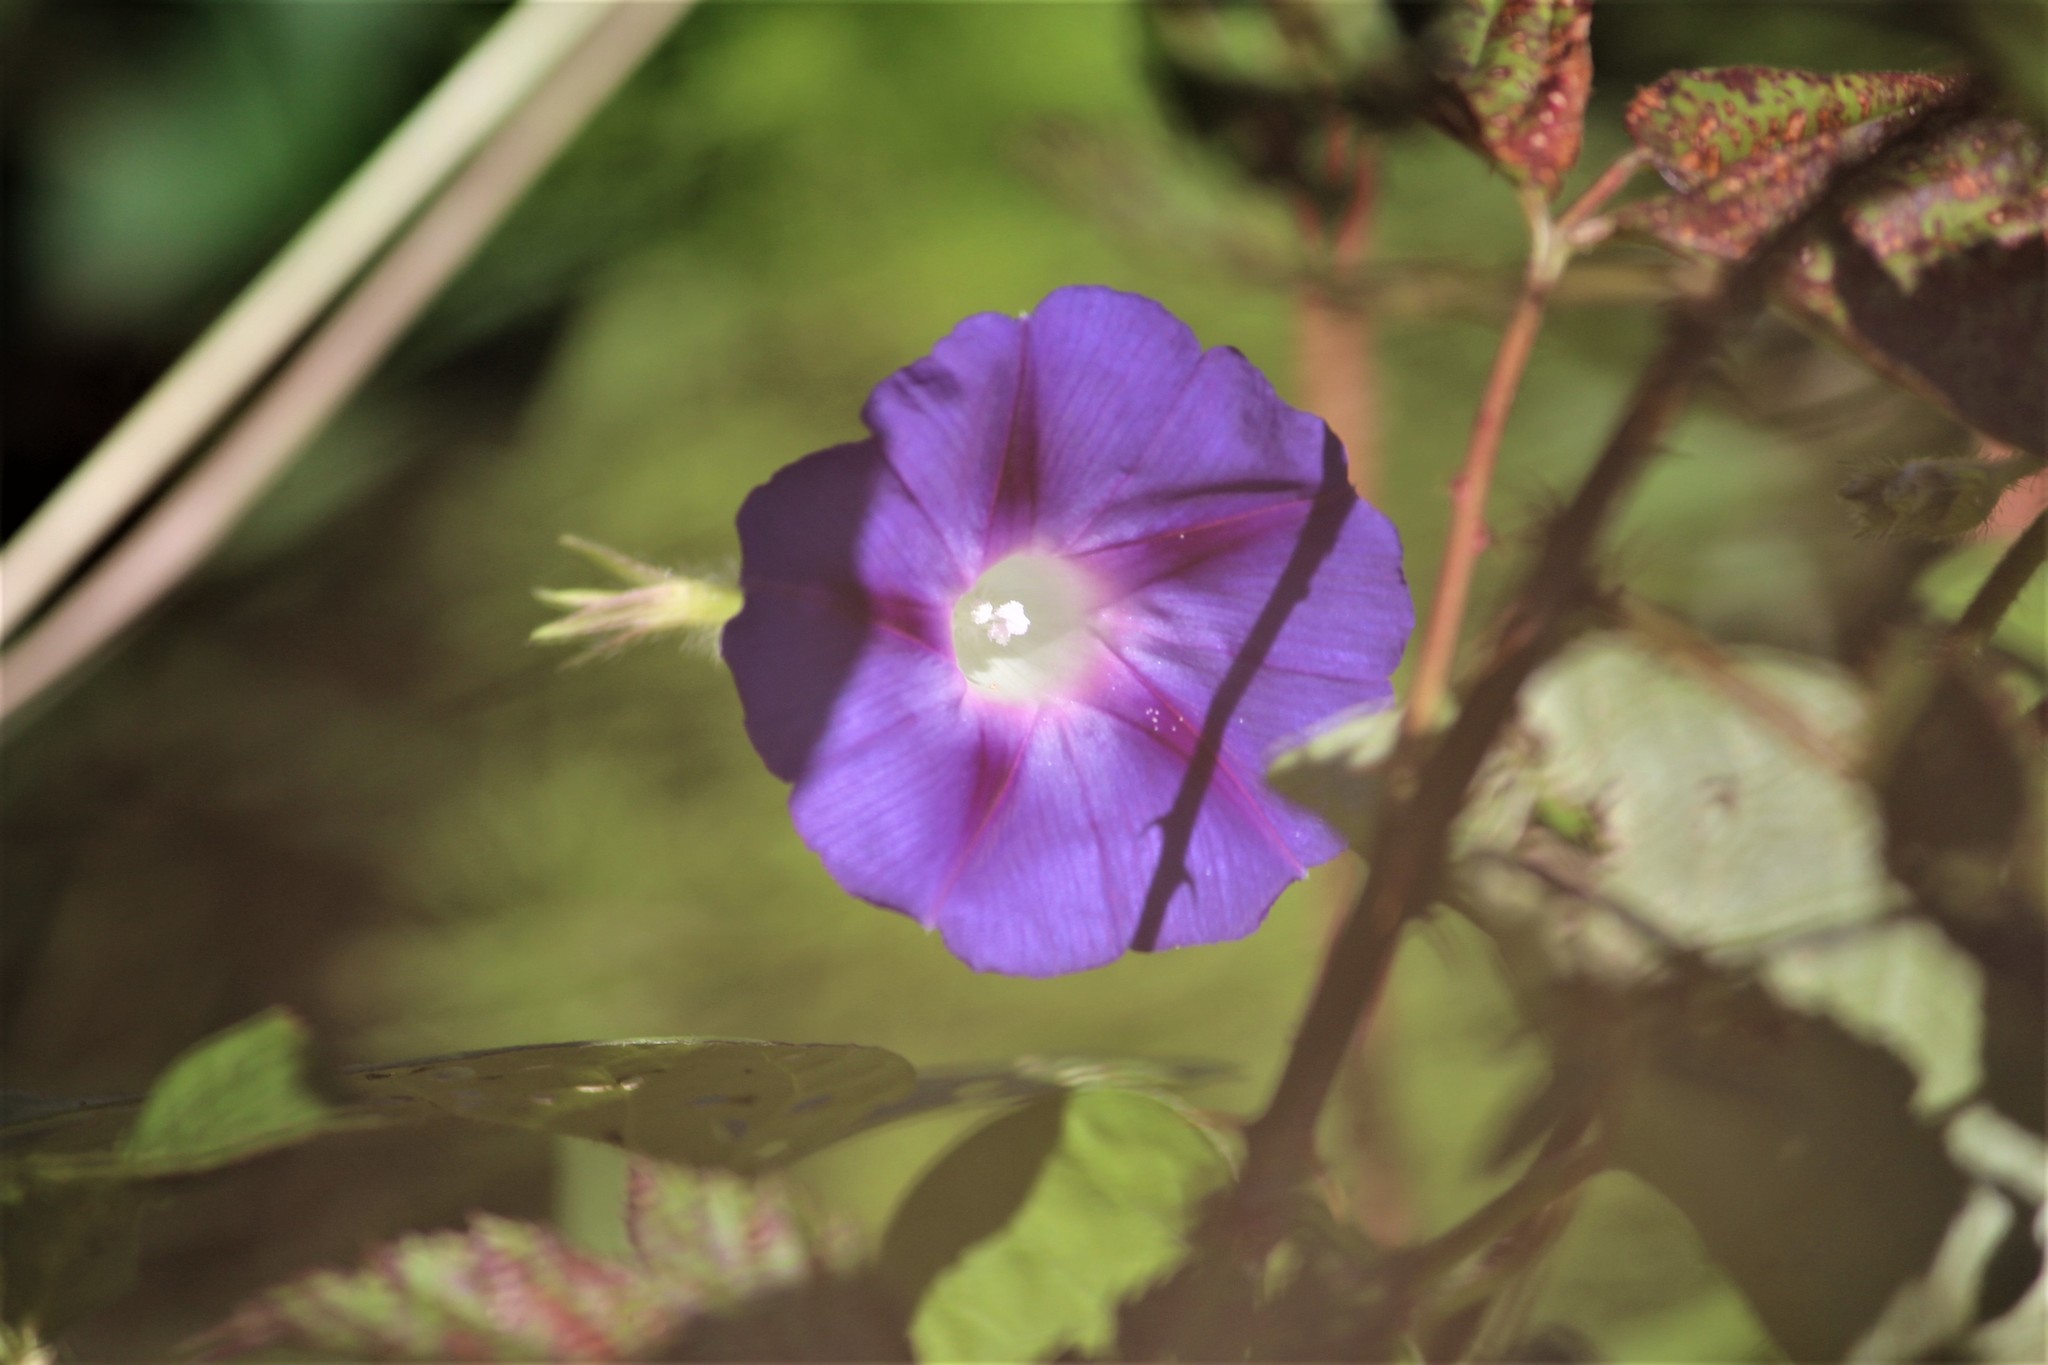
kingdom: Plantae
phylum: Tracheophyta
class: Magnoliopsida
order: Solanales
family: Convolvulaceae
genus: Ipomoea
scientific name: Ipomoea purpurea
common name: Common morning-glory
